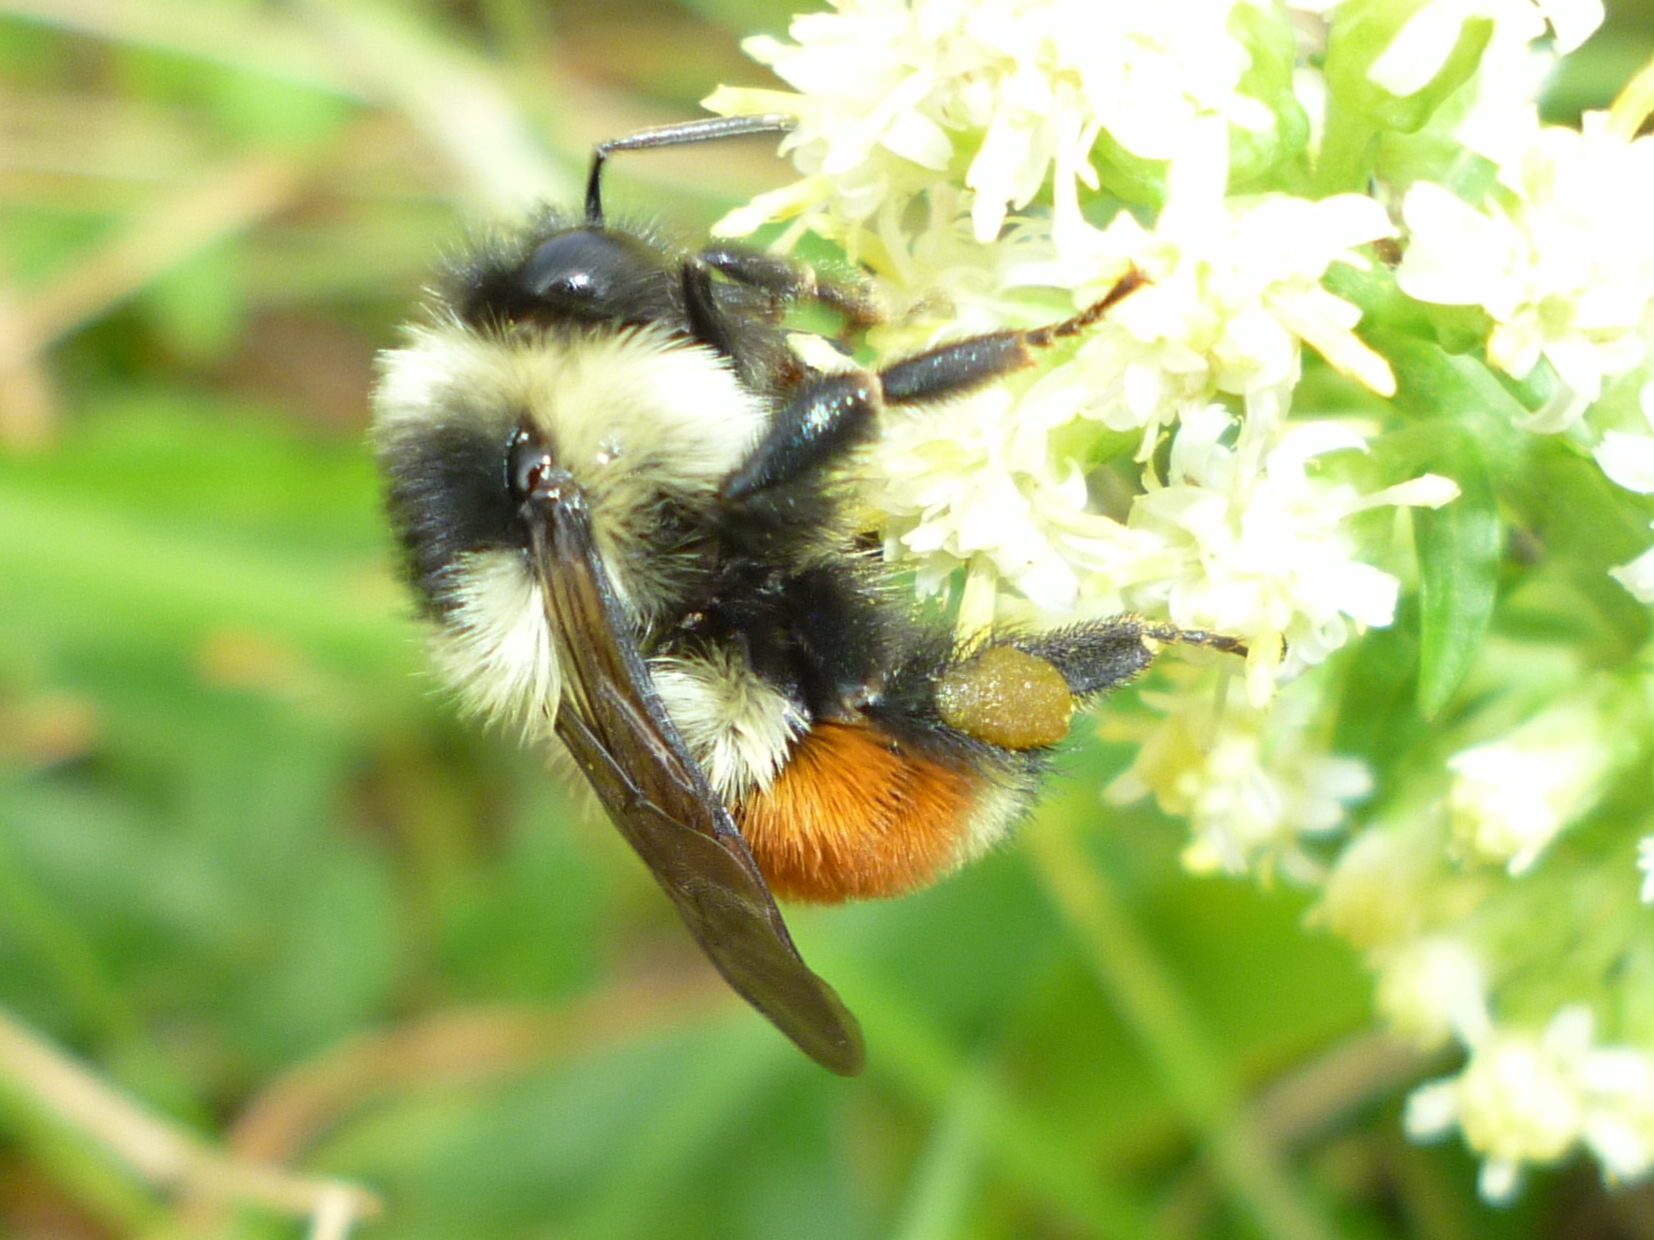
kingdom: Animalia
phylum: Arthropoda
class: Insecta
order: Hymenoptera
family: Apidae
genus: Bombus
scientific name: Bombus ternarius
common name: Tri-colored bumble bee
